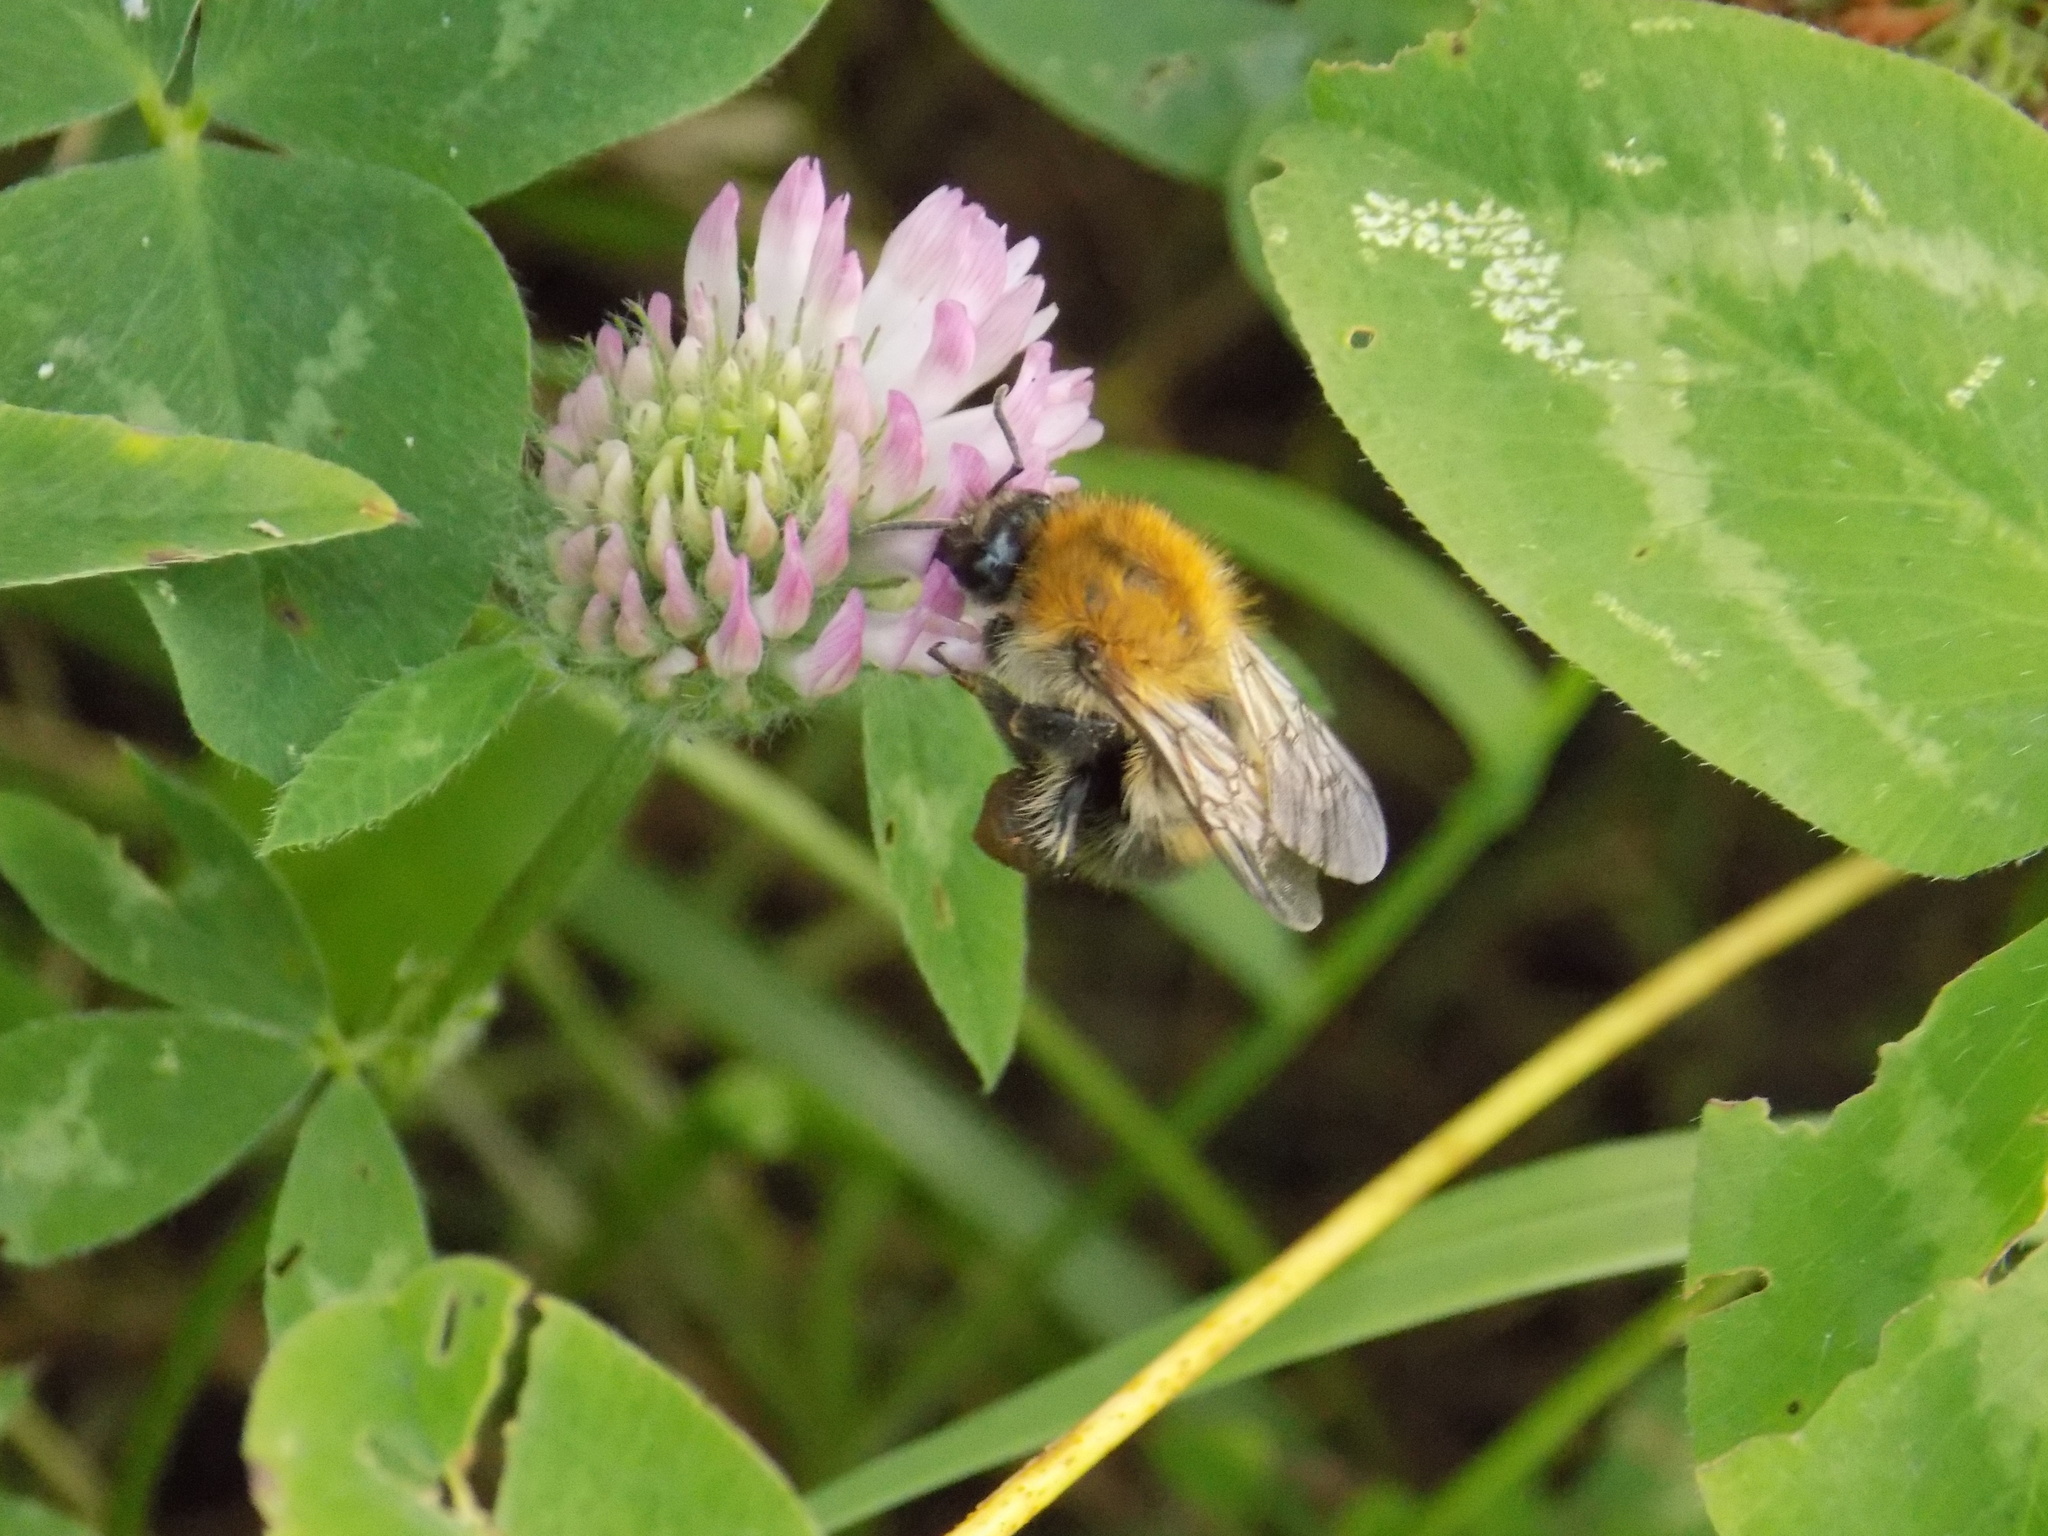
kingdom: Animalia
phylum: Arthropoda
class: Insecta
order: Hymenoptera
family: Apidae
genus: Bombus
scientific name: Bombus pascuorum
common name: Common carder bee
